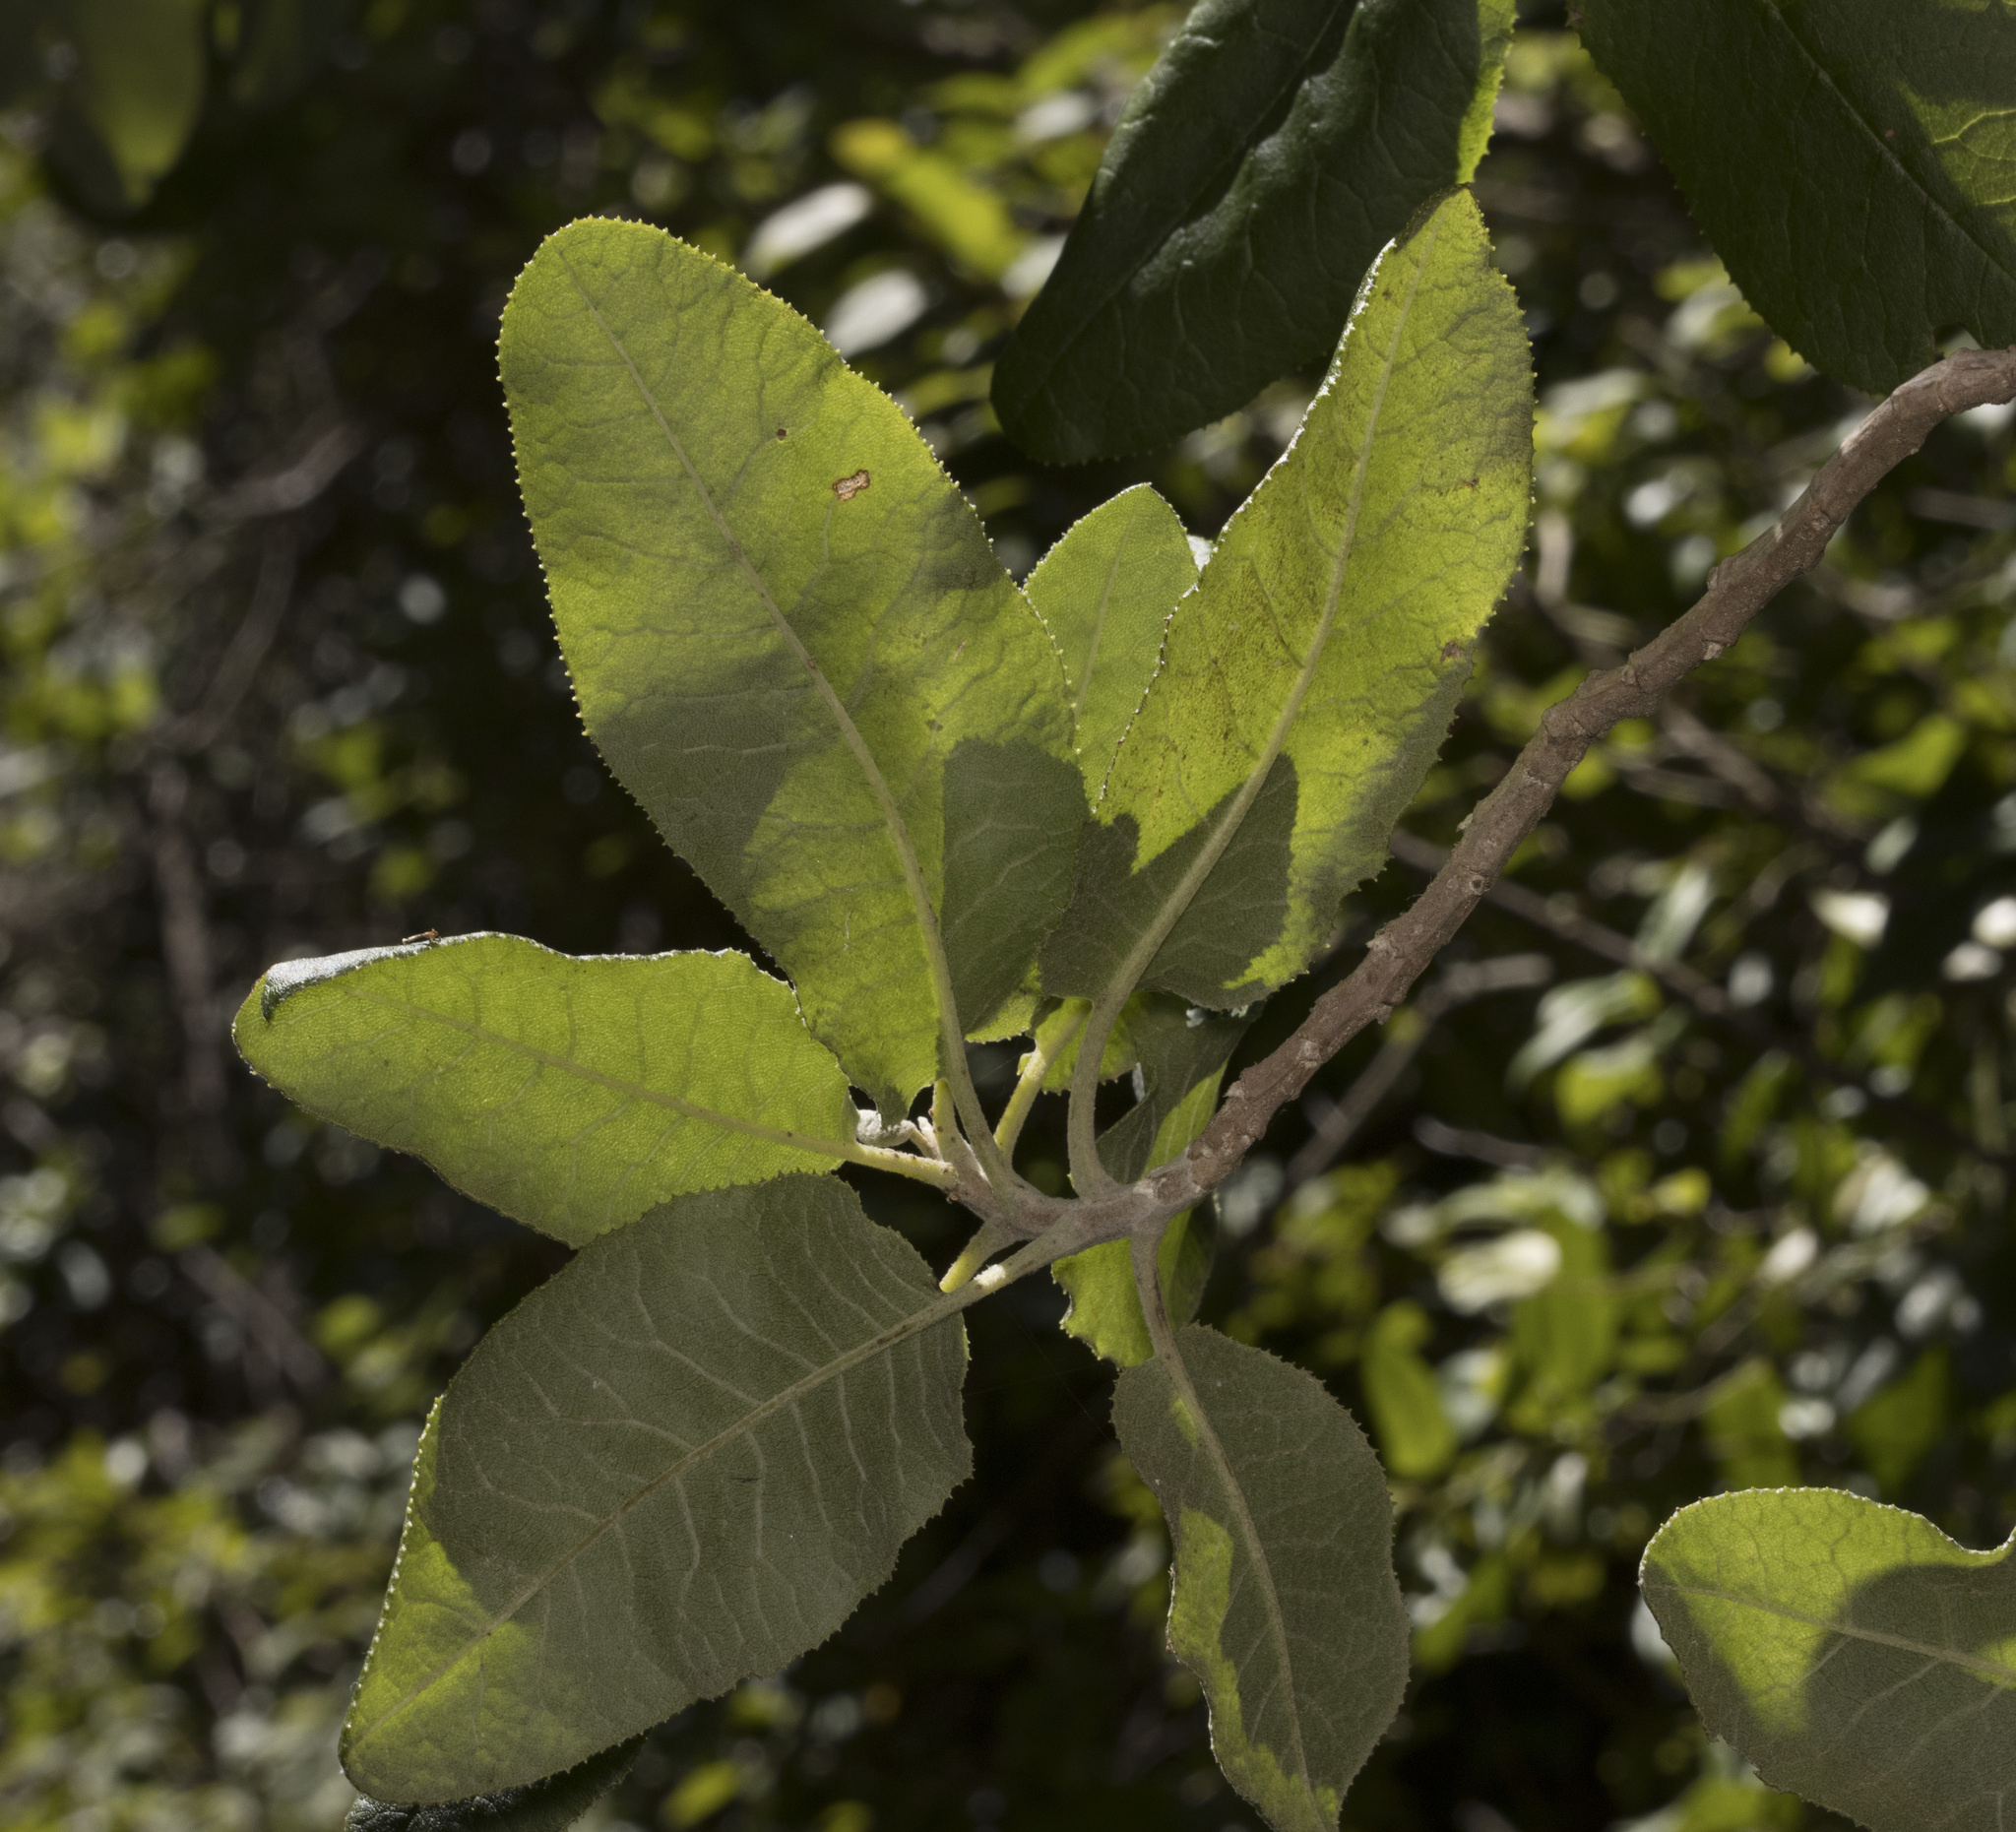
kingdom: Plantae
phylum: Tracheophyta
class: Magnoliopsida
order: Asterales
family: Asteraceae
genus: Acrisione
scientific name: Acrisione denticulata
